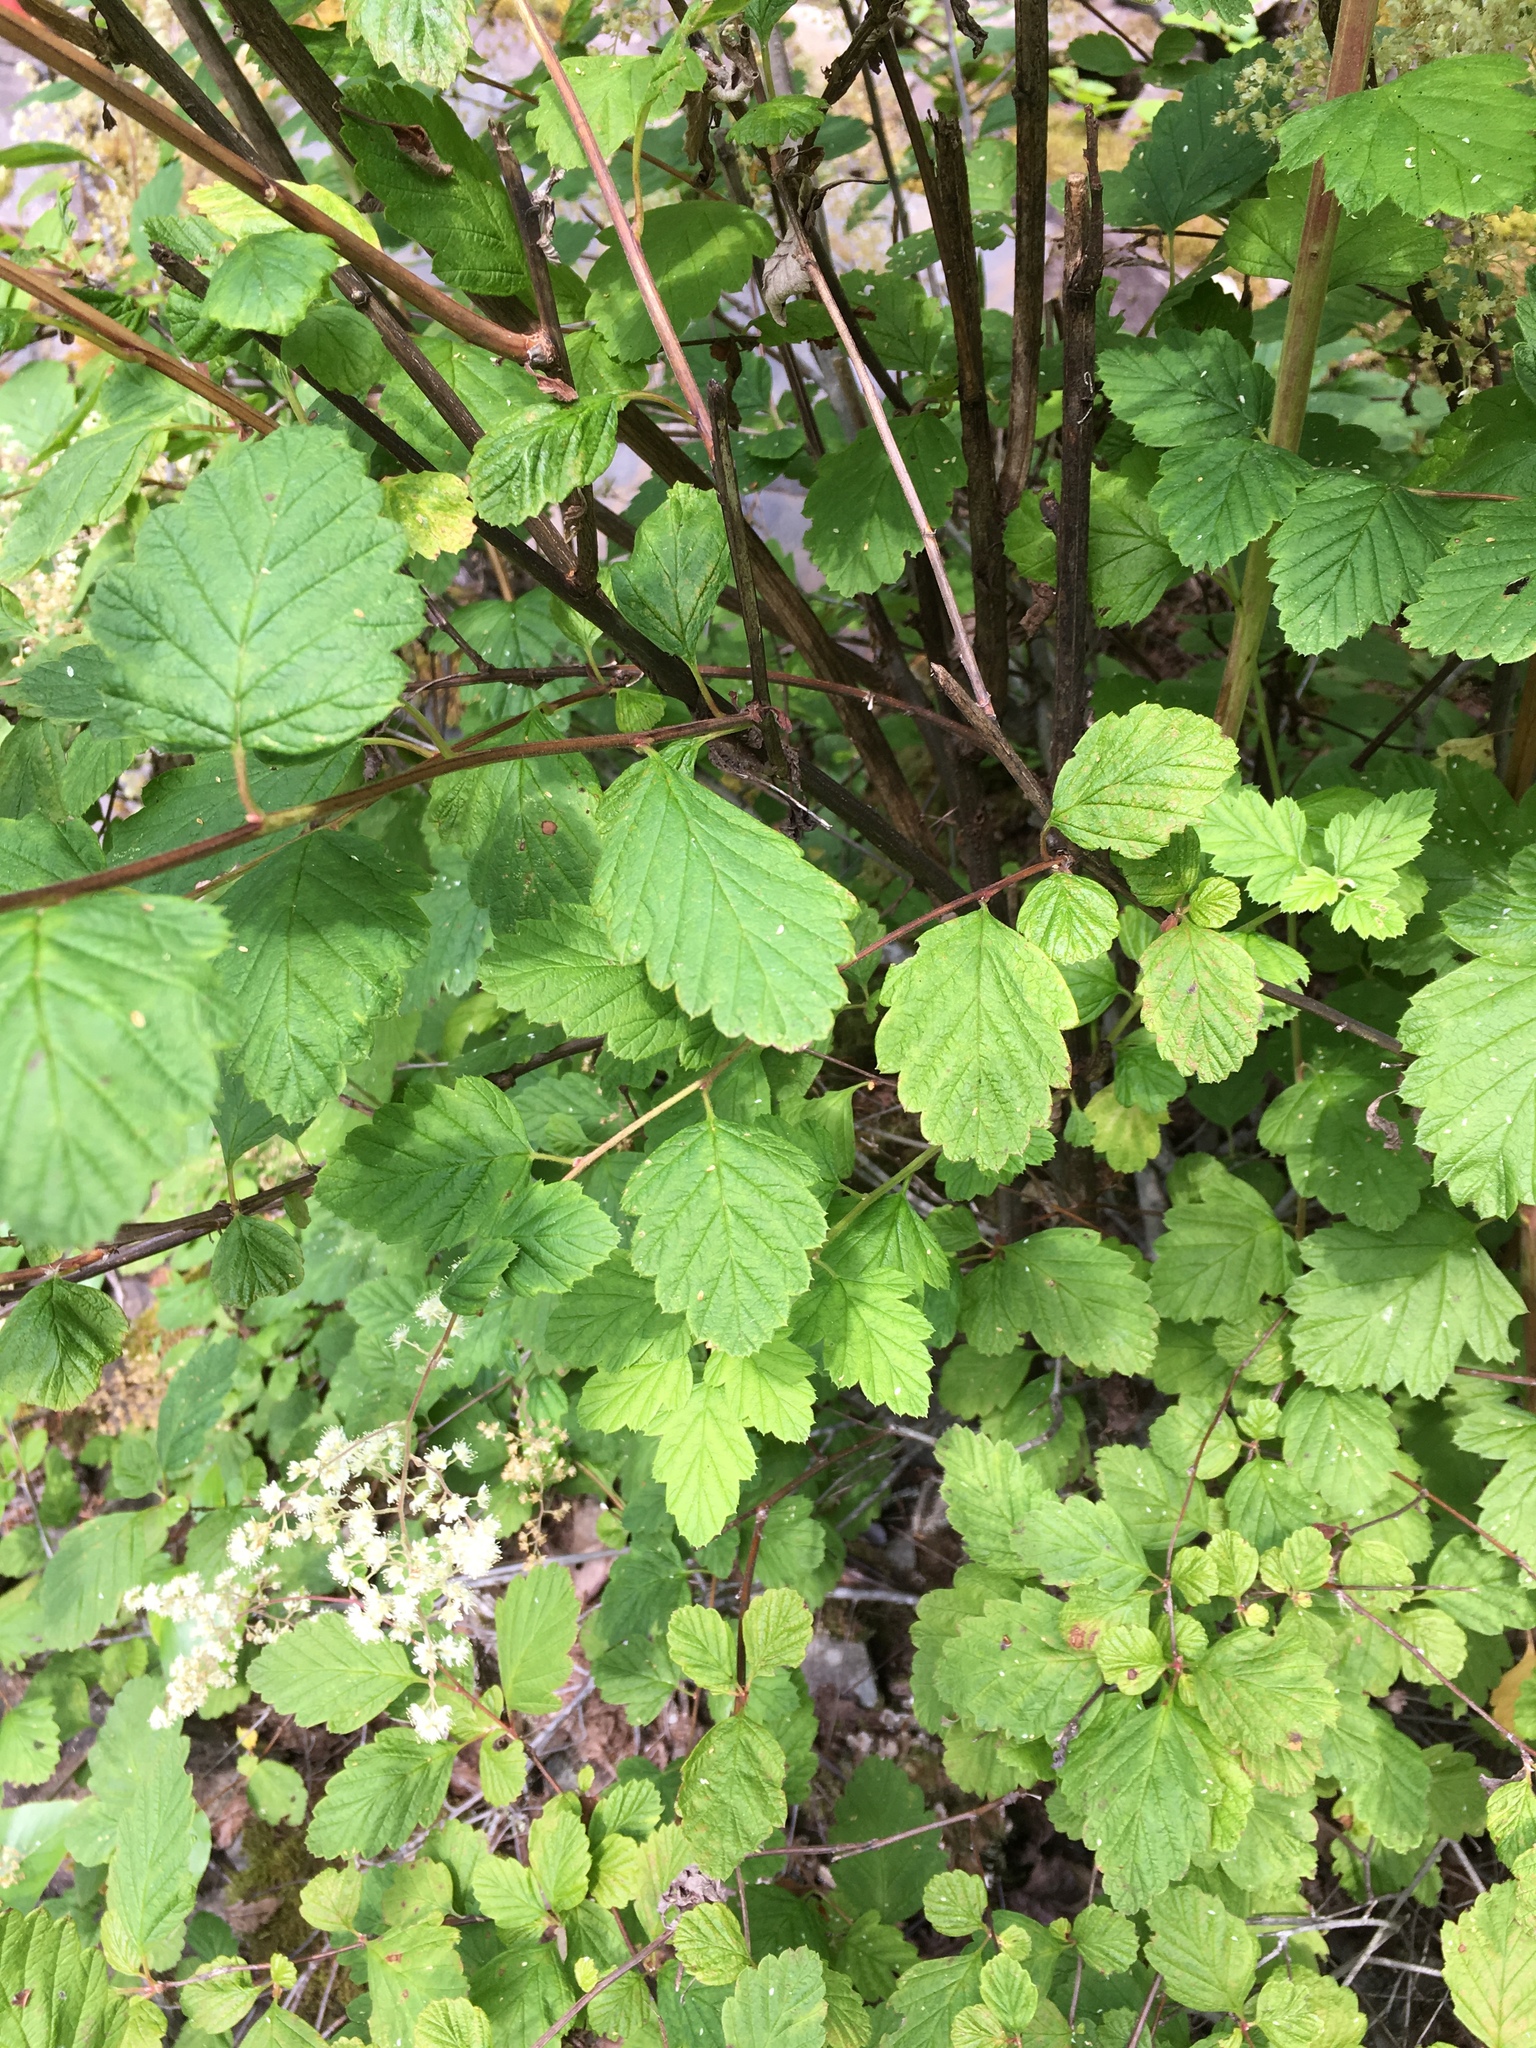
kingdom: Plantae
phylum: Tracheophyta
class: Magnoliopsida
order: Rosales
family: Rosaceae
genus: Holodiscus
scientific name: Holodiscus discolor
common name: Oceanspray
